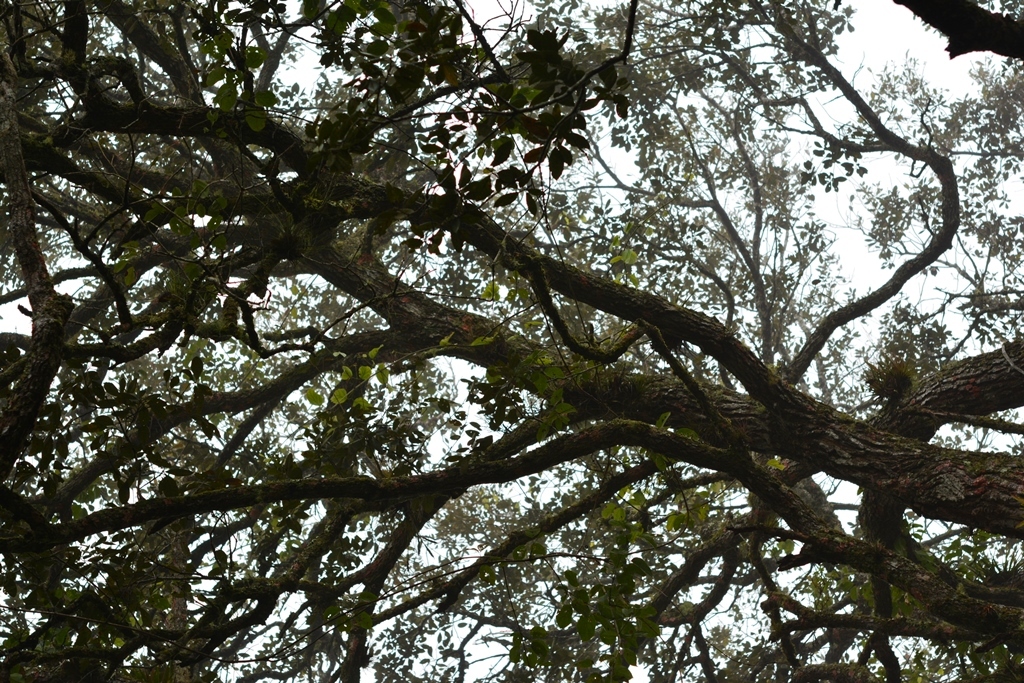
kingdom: Plantae
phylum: Tracheophyta
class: Magnoliopsida
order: Fagales
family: Fagaceae
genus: Quercus
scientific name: Quercus oleoides
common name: White oak
